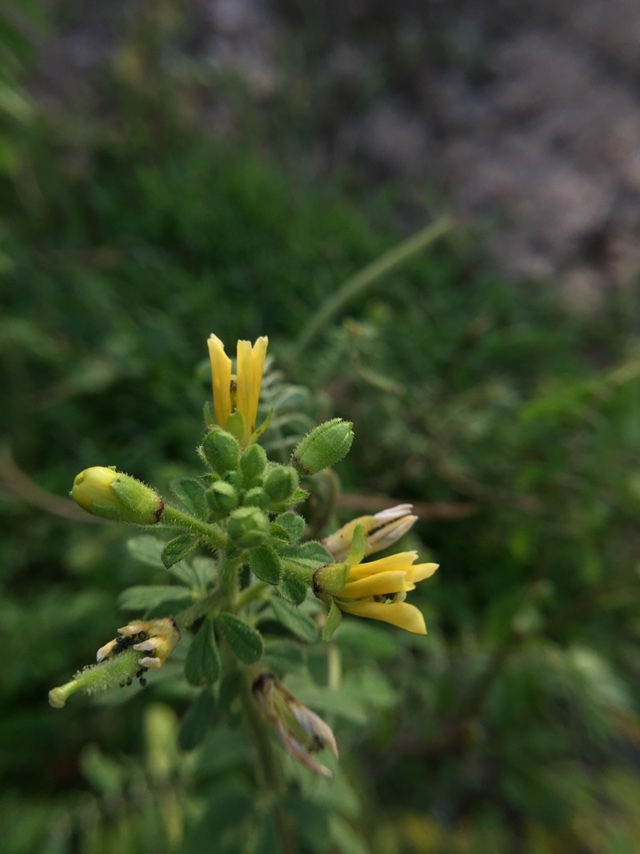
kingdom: Plantae
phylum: Tracheophyta
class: Magnoliopsida
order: Brassicales
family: Cleomaceae
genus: Arivela
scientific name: Arivela viscosa
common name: Asian spiderflower
